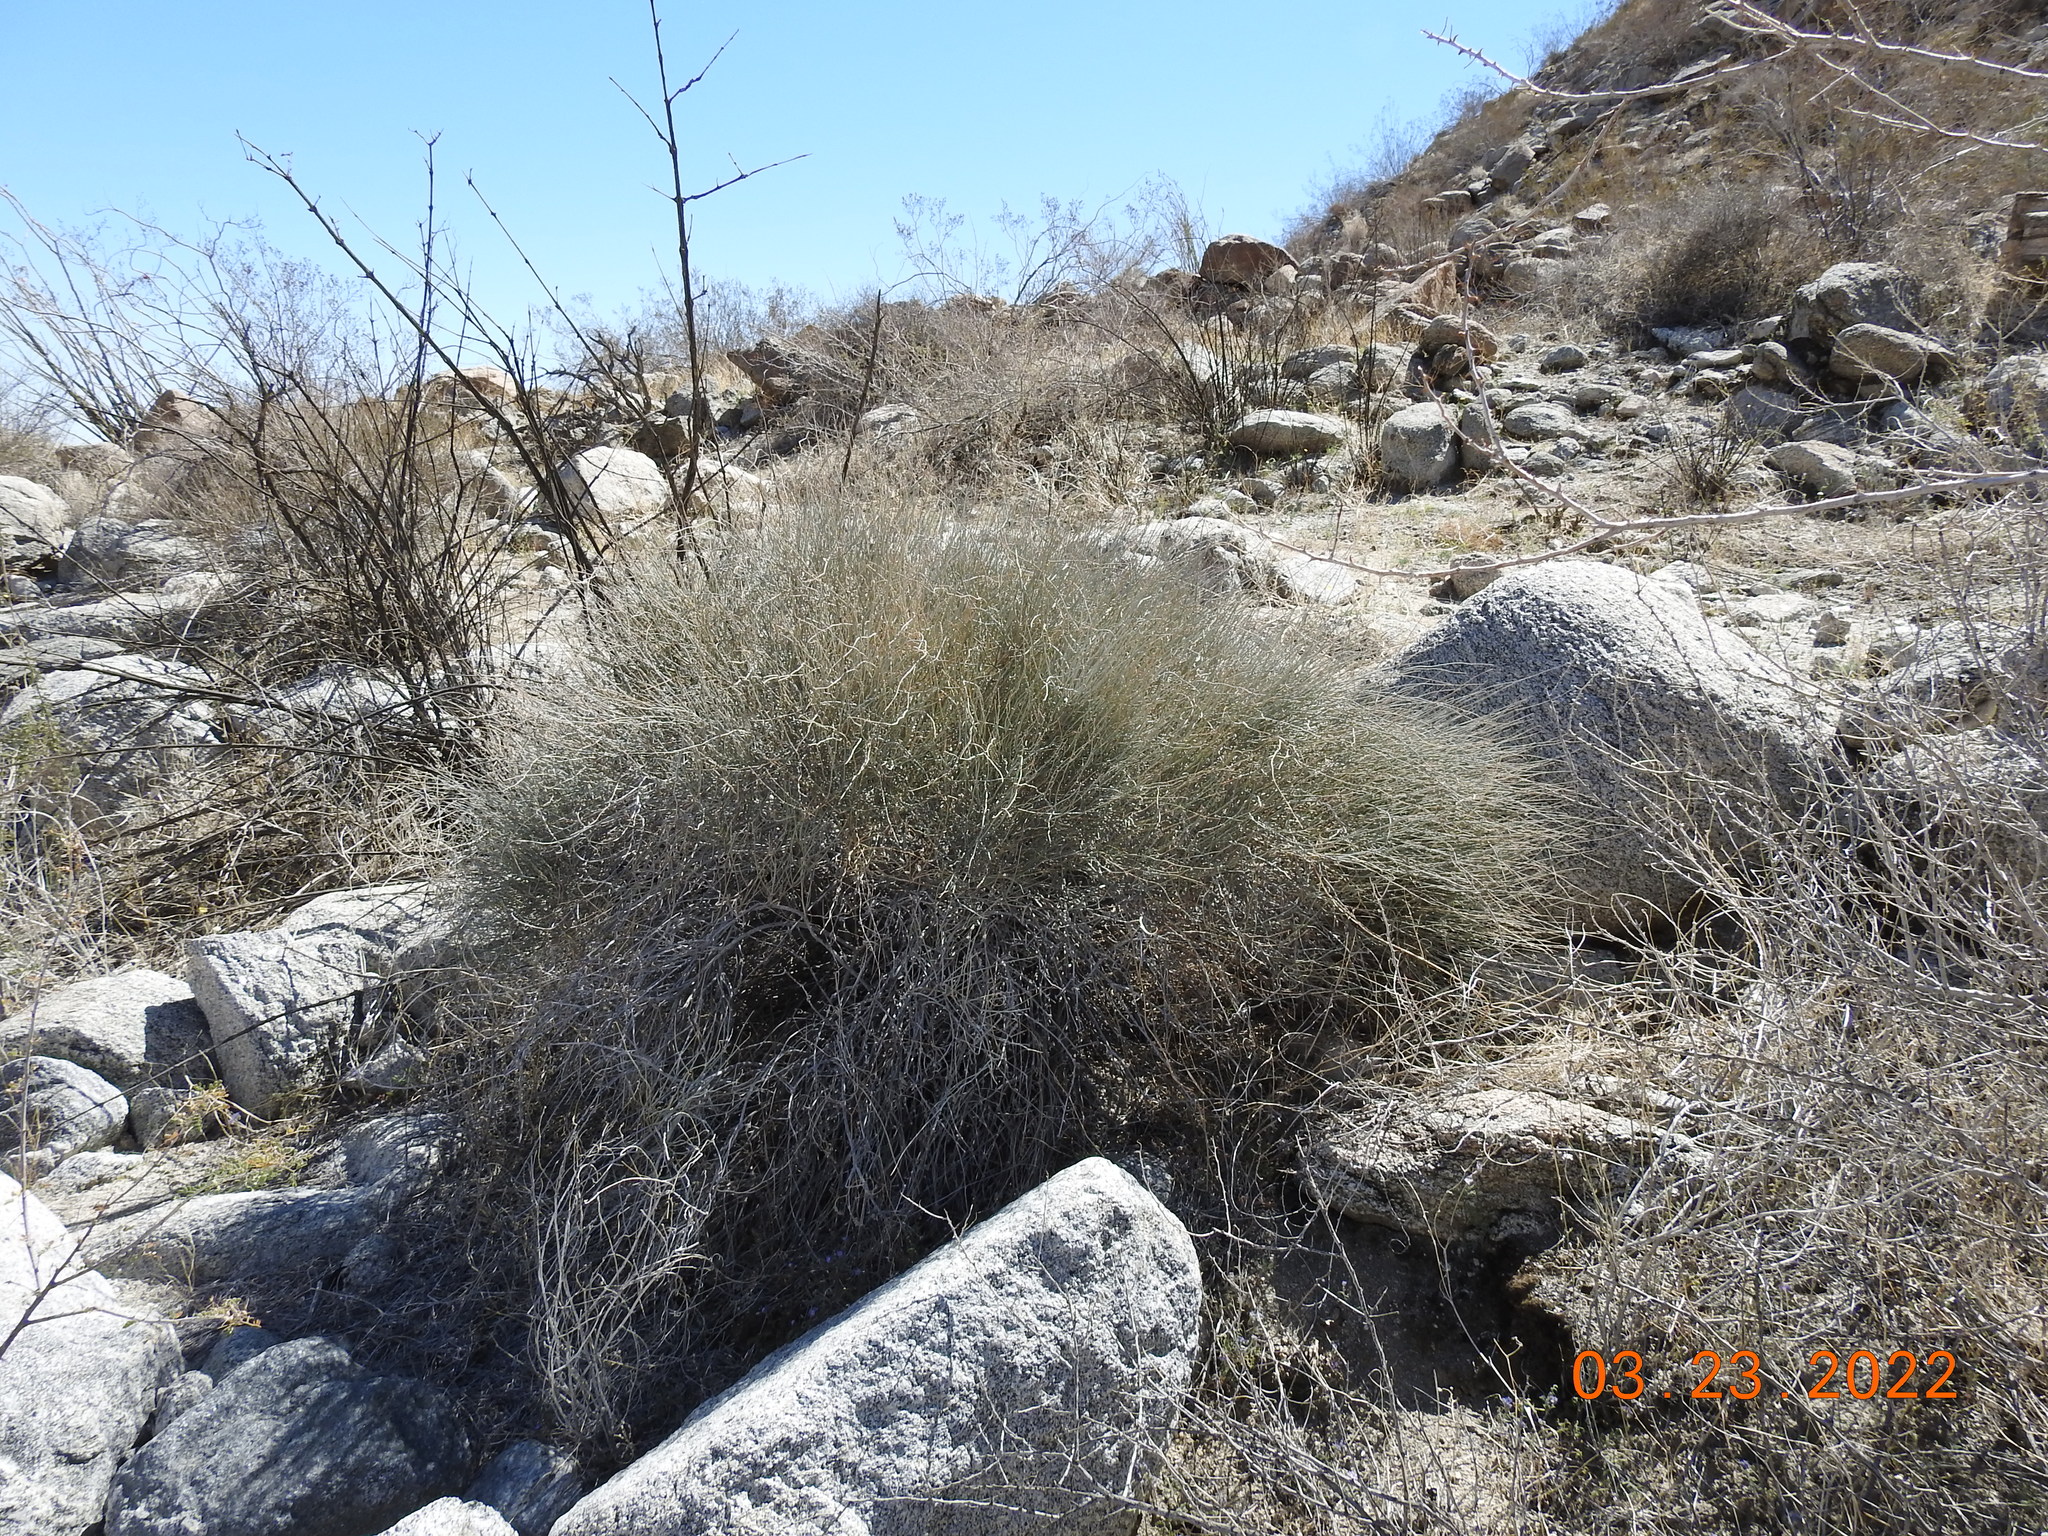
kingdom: Plantae
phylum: Tracheophyta
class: Gnetopsida
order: Ephedrales
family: Ephedraceae
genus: Ephedra
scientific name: Ephedra californica
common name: California ephedra
